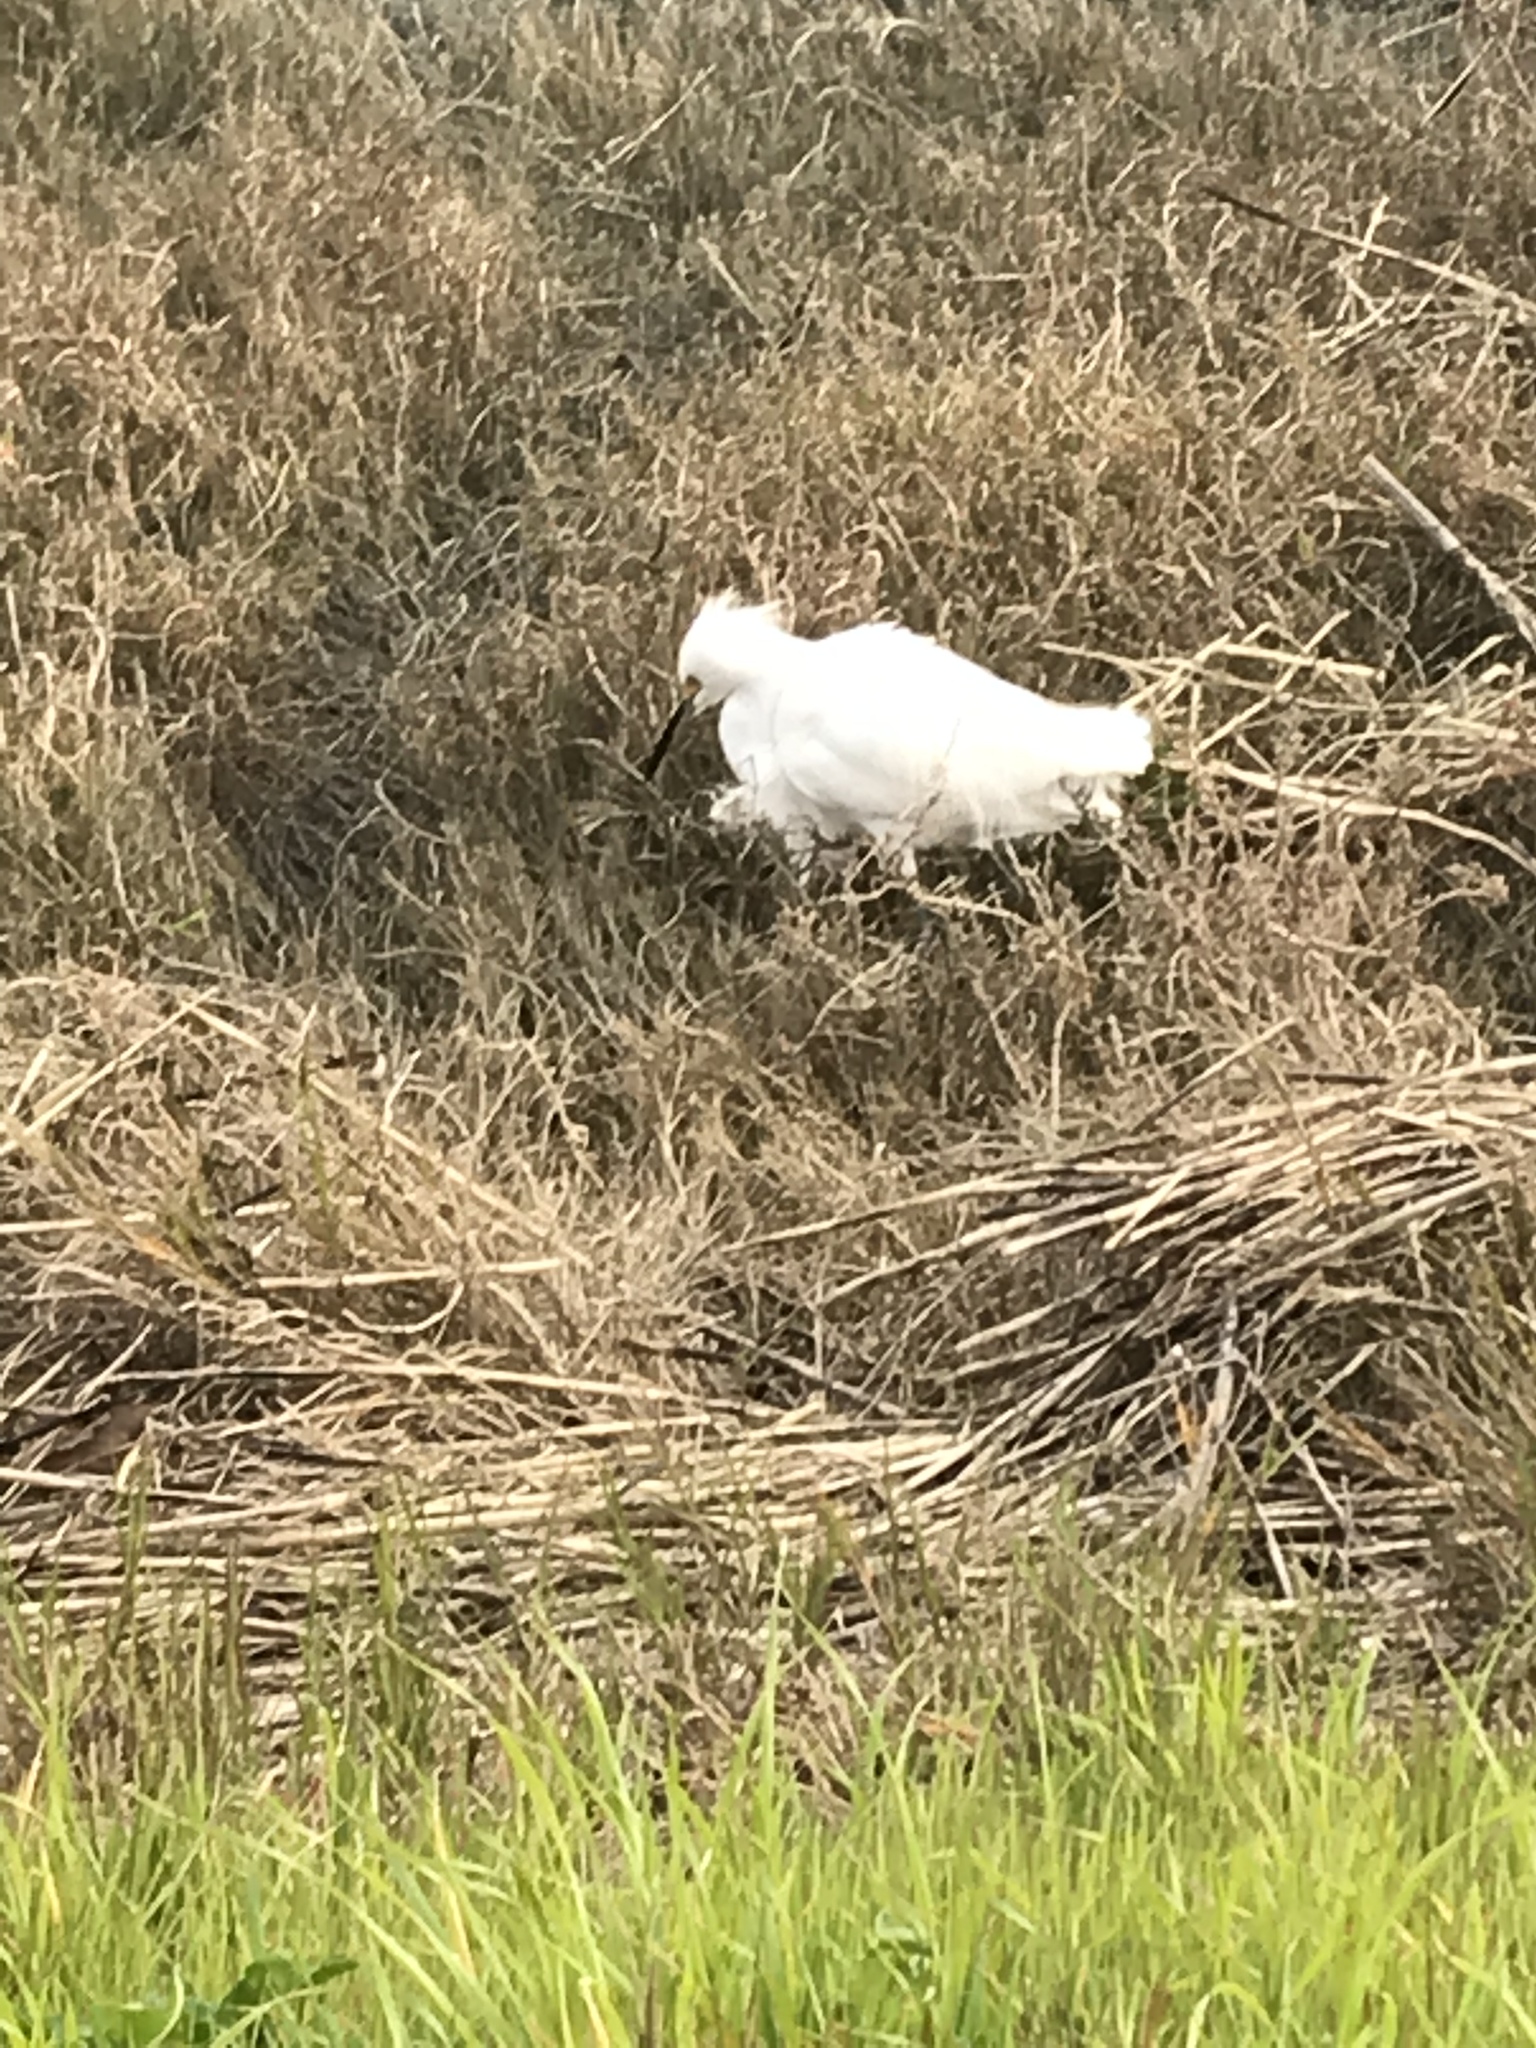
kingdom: Animalia
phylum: Chordata
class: Aves
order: Pelecaniformes
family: Ardeidae
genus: Egretta
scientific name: Egretta thula
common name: Snowy egret
